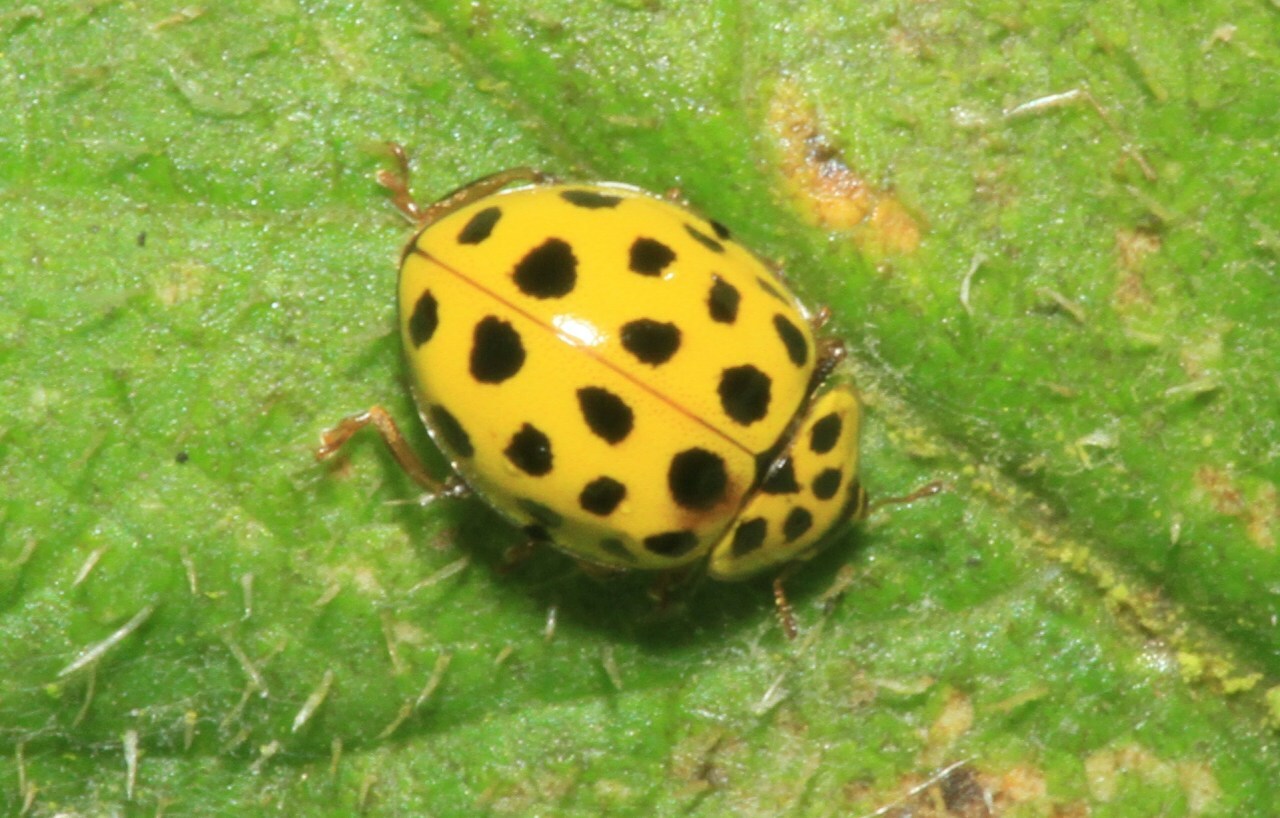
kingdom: Animalia
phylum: Arthropoda
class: Insecta
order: Coleoptera
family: Coccinellidae
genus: Psyllobora
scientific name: Psyllobora vigintiduopunctata
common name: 22-spot ladybird
